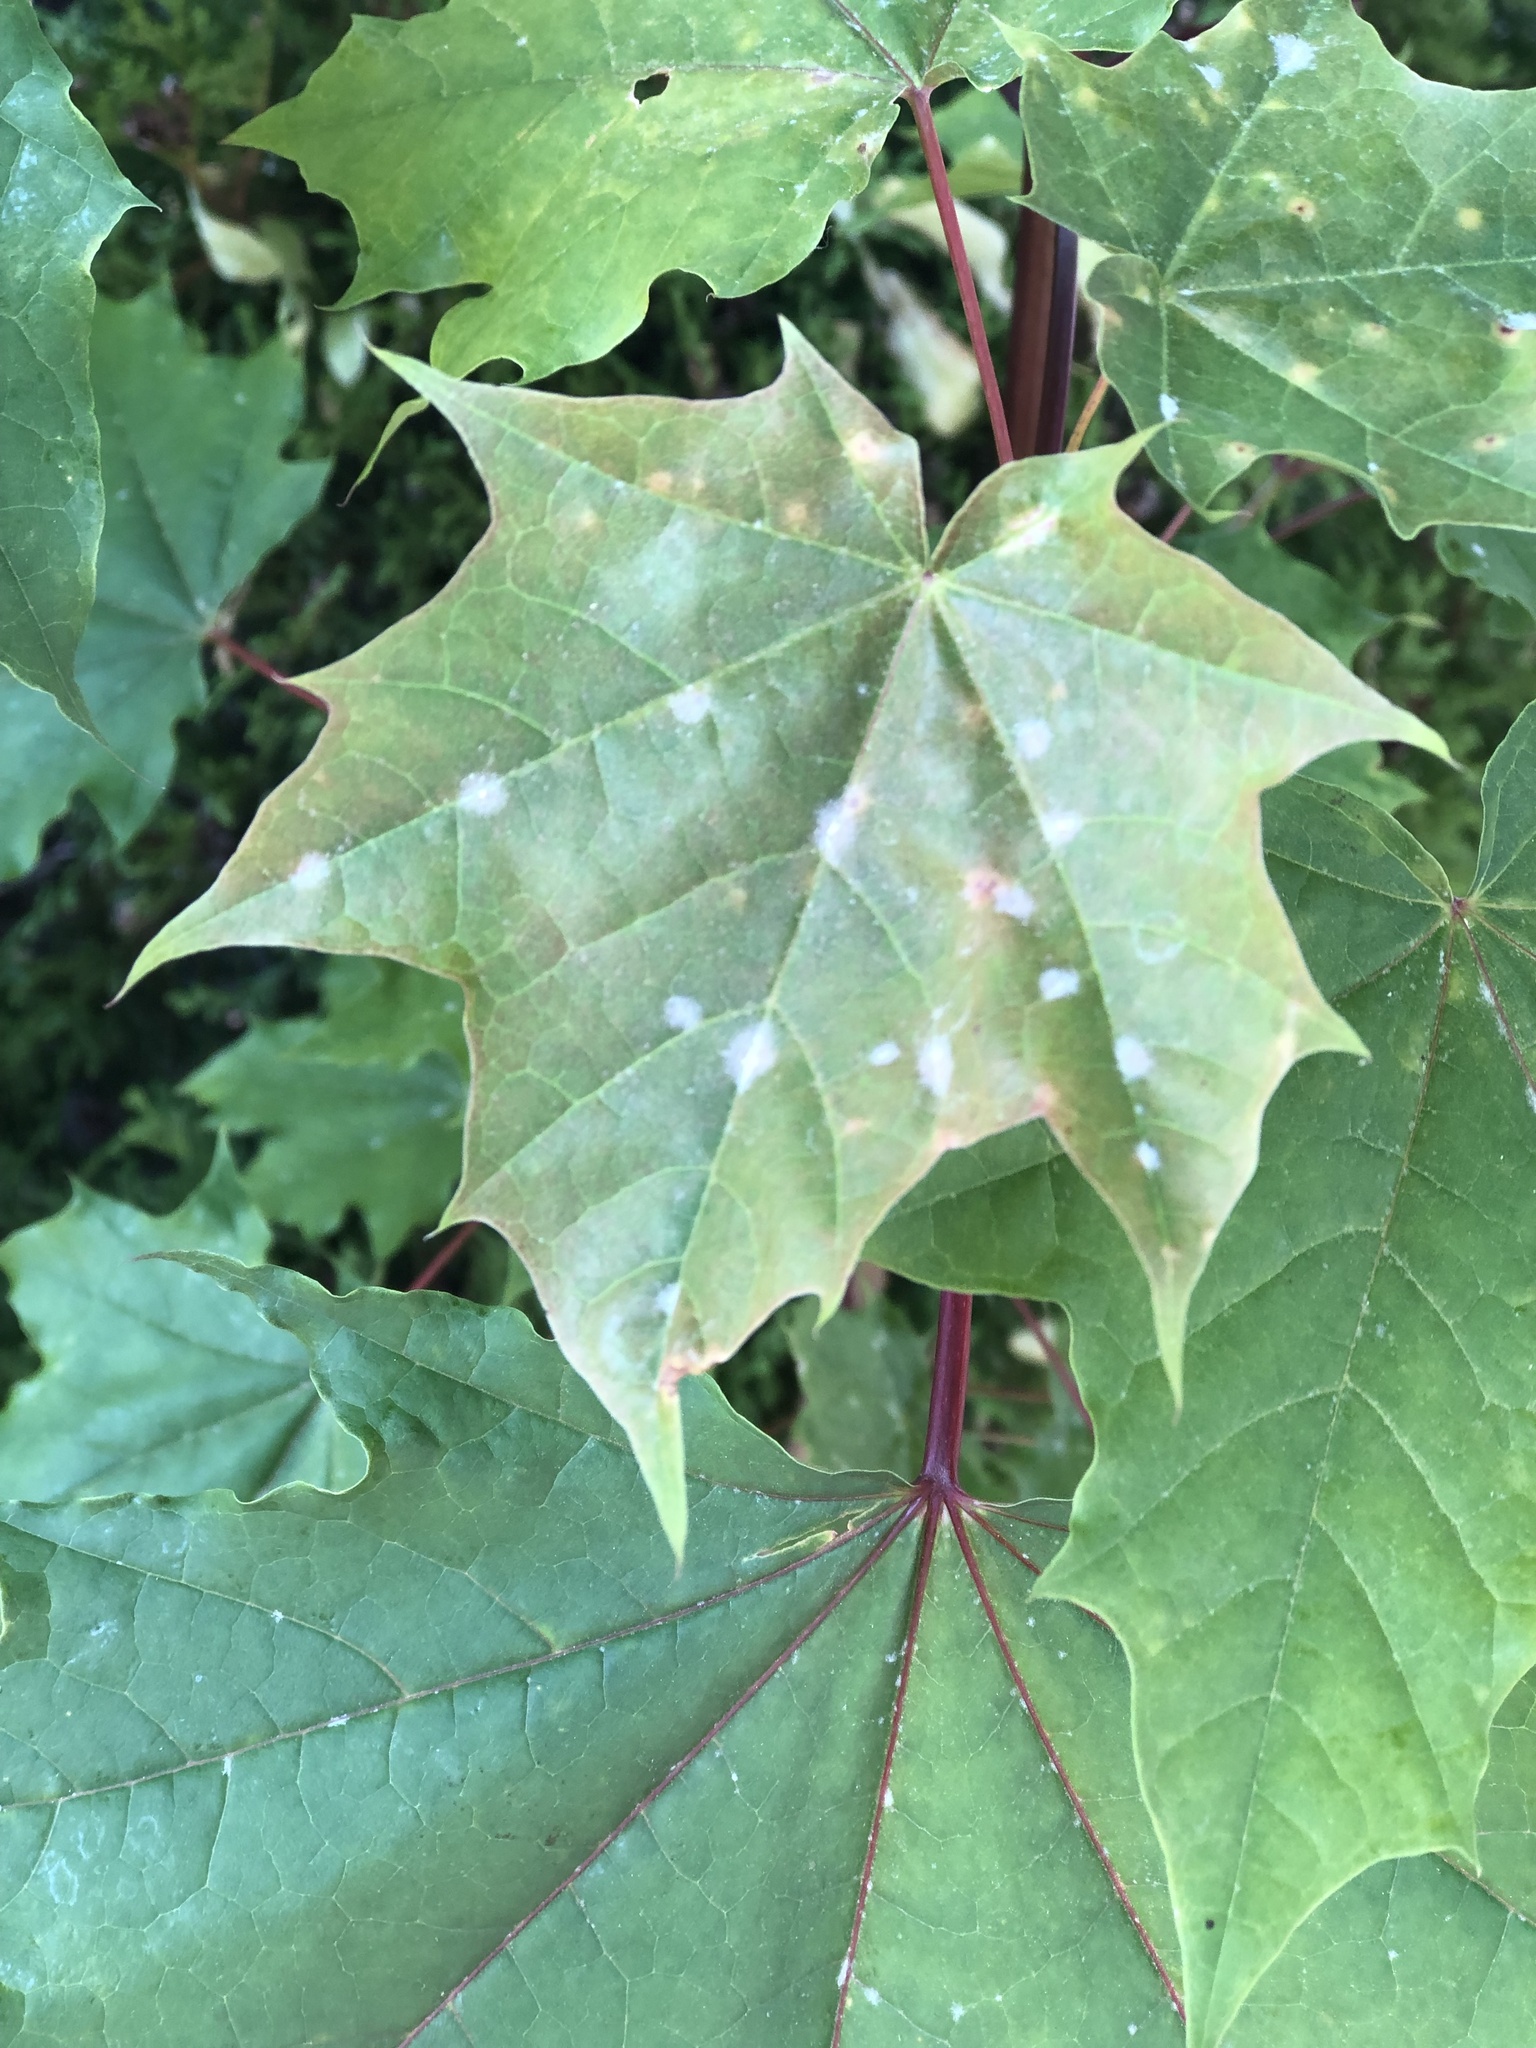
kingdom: Plantae
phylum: Tracheophyta
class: Magnoliopsida
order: Sapindales
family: Sapindaceae
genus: Acer
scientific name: Acer platanoides
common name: Norway maple
